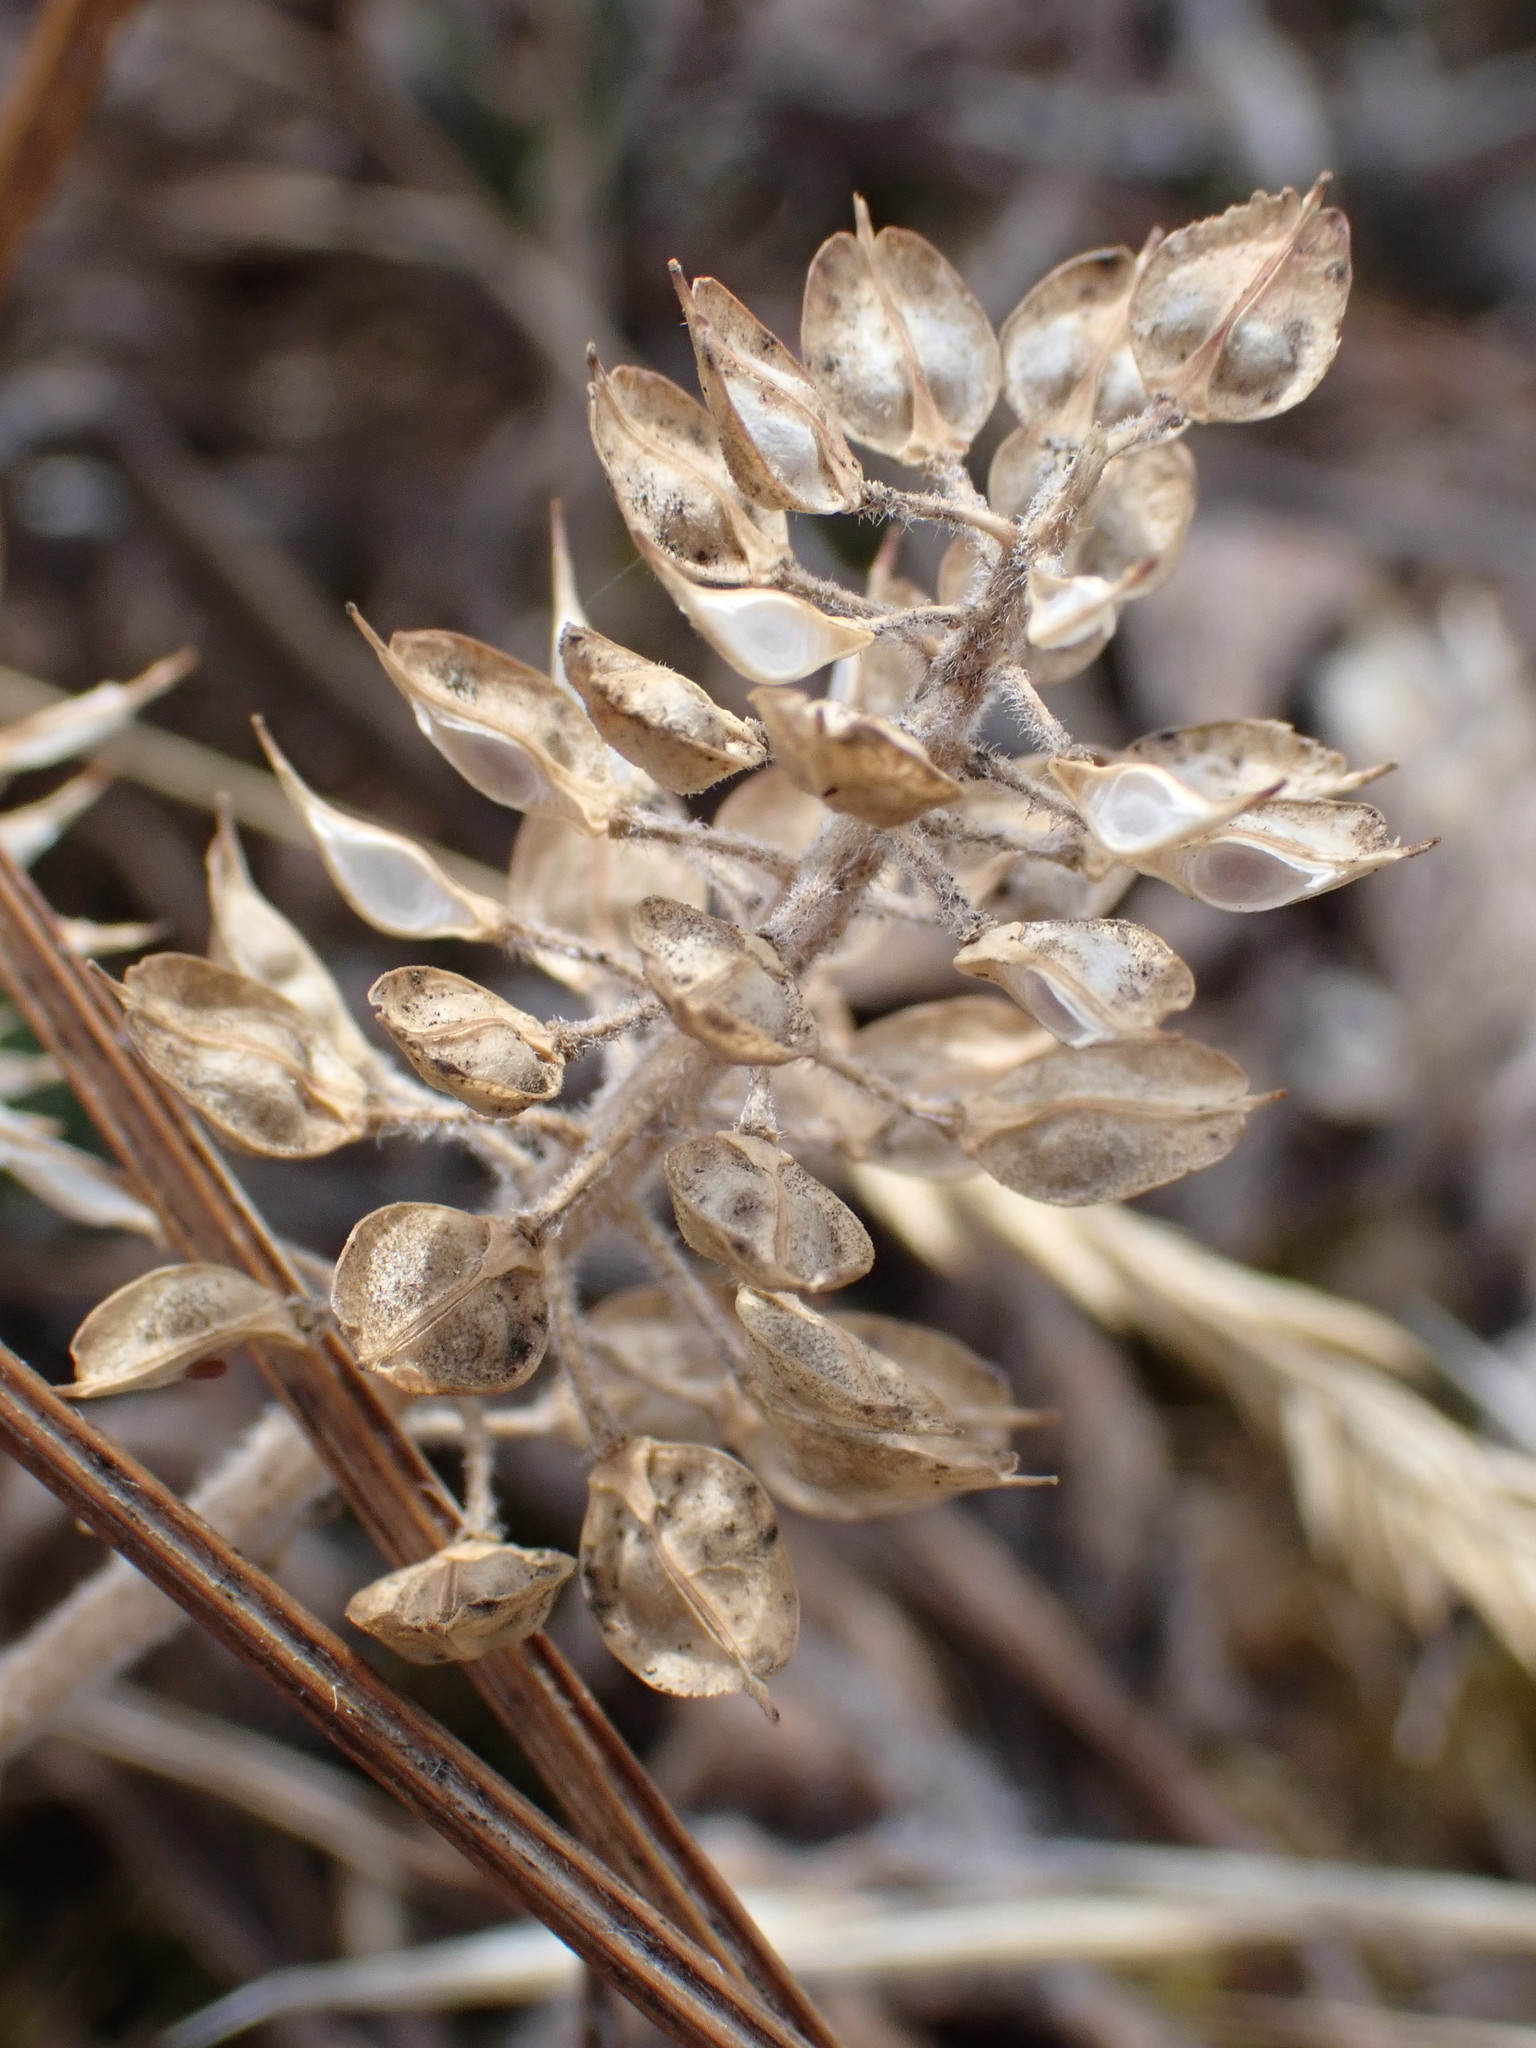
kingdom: Plantae
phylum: Tracheophyta
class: Magnoliopsida
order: Brassicales
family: Brassicaceae
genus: Lepidium
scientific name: Lepidium heterophyllum
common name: Smith's pepperwort
